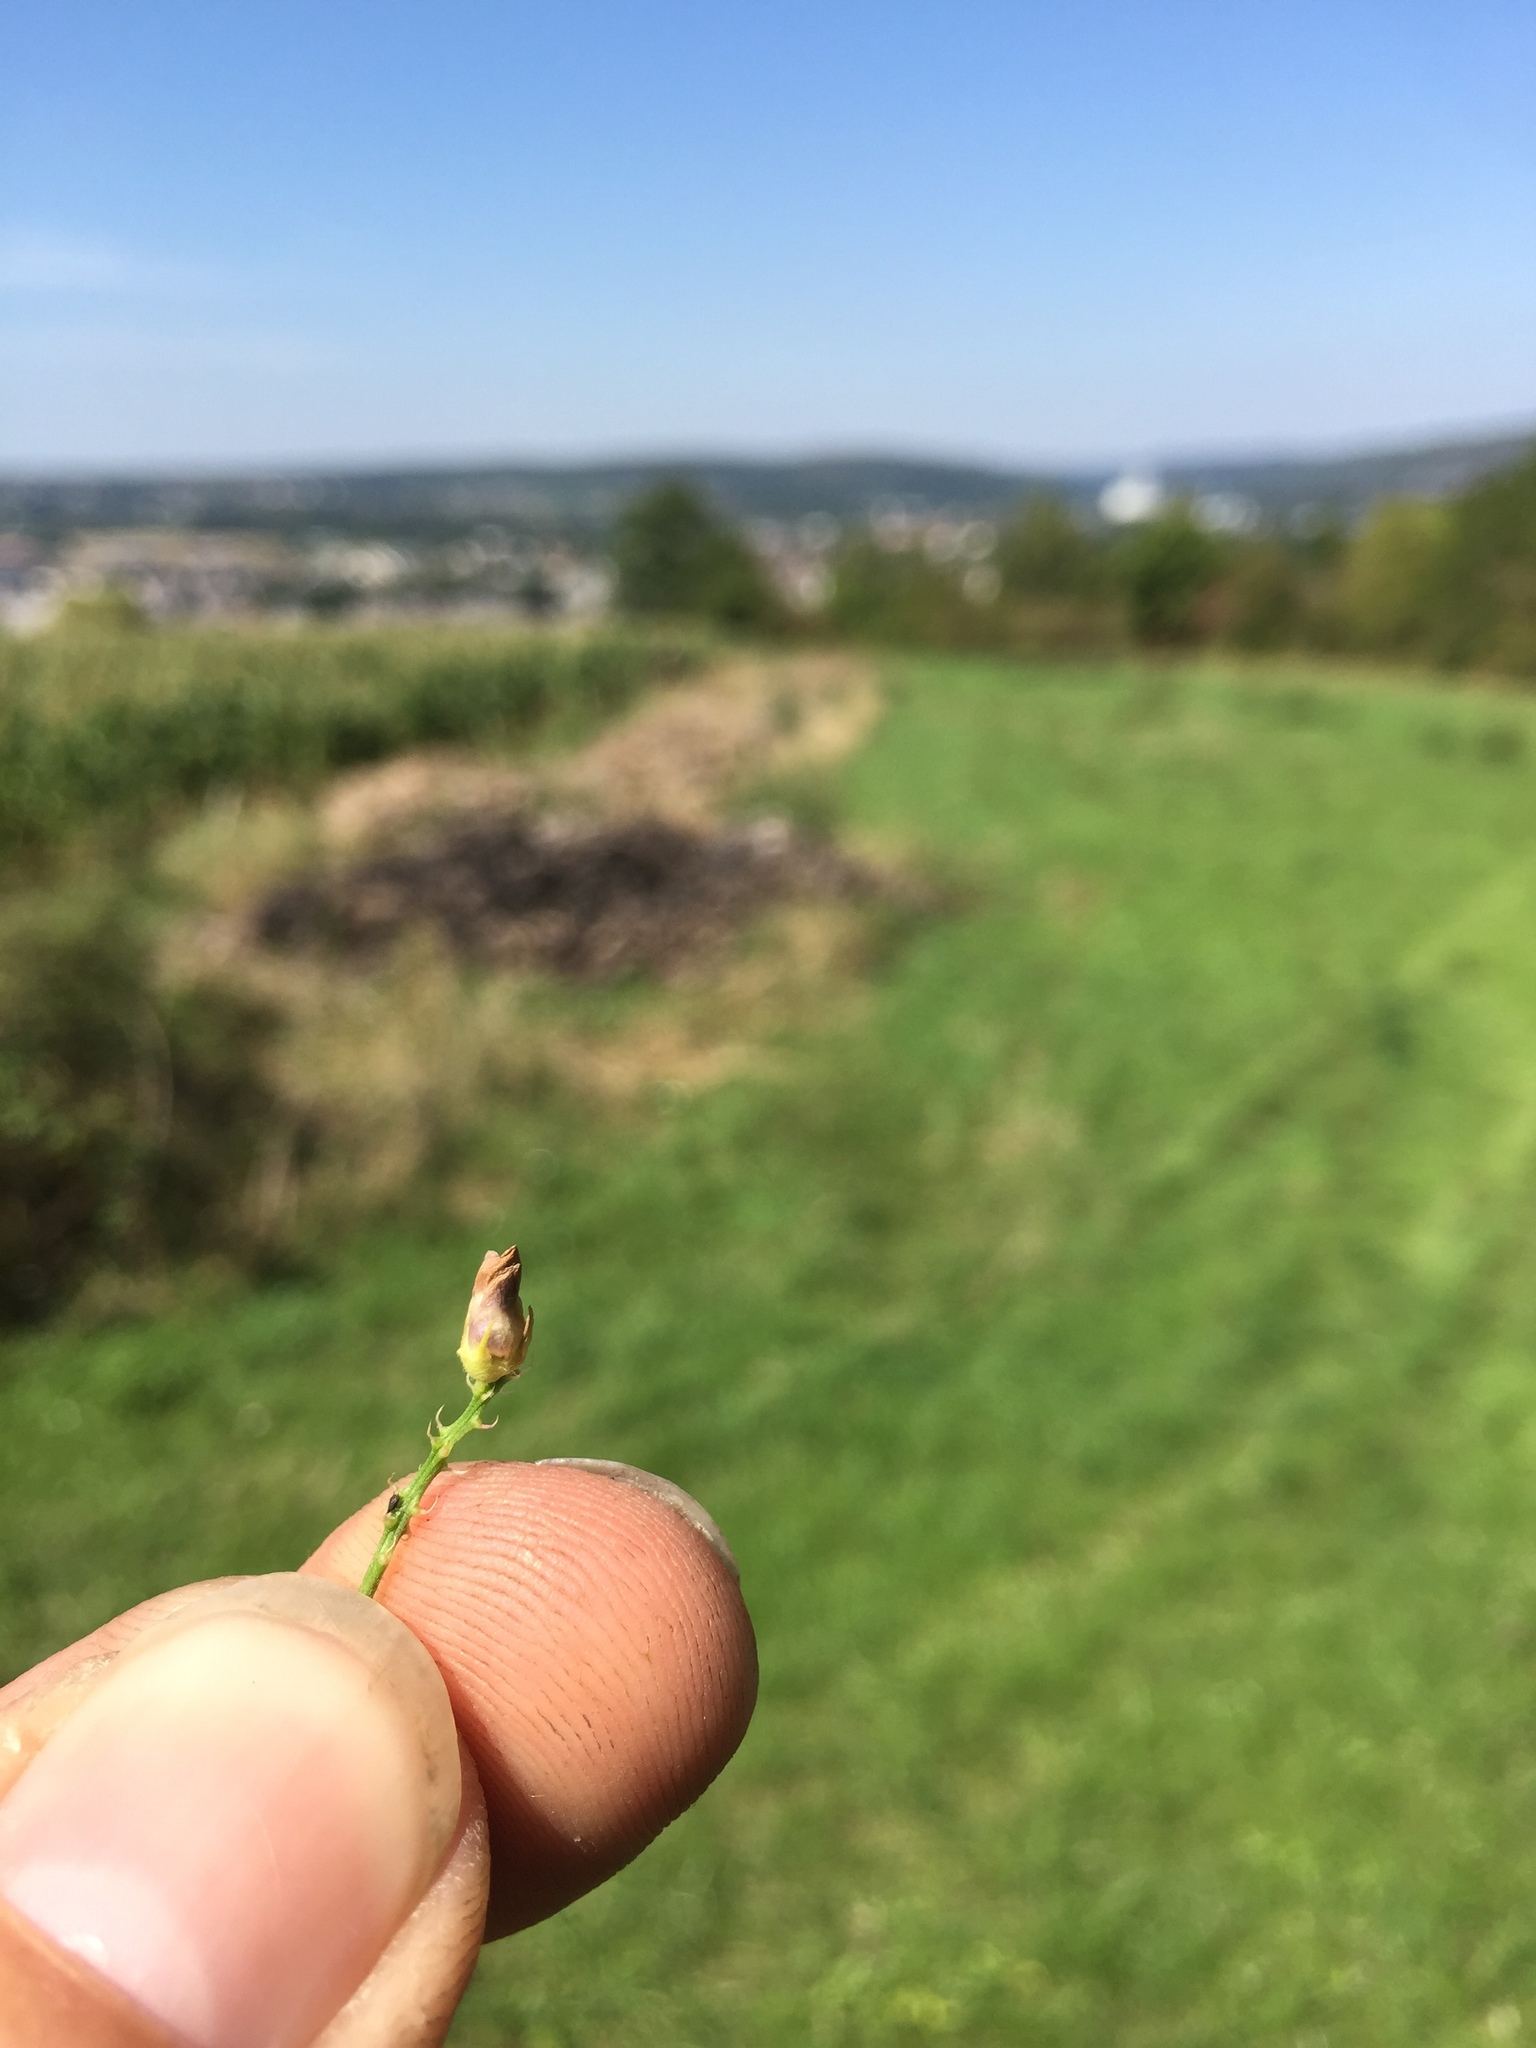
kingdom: Animalia
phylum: Arthropoda
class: Insecta
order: Diptera
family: Cecidomyiidae
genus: Contarinia
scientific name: Contarinia medicaginis
